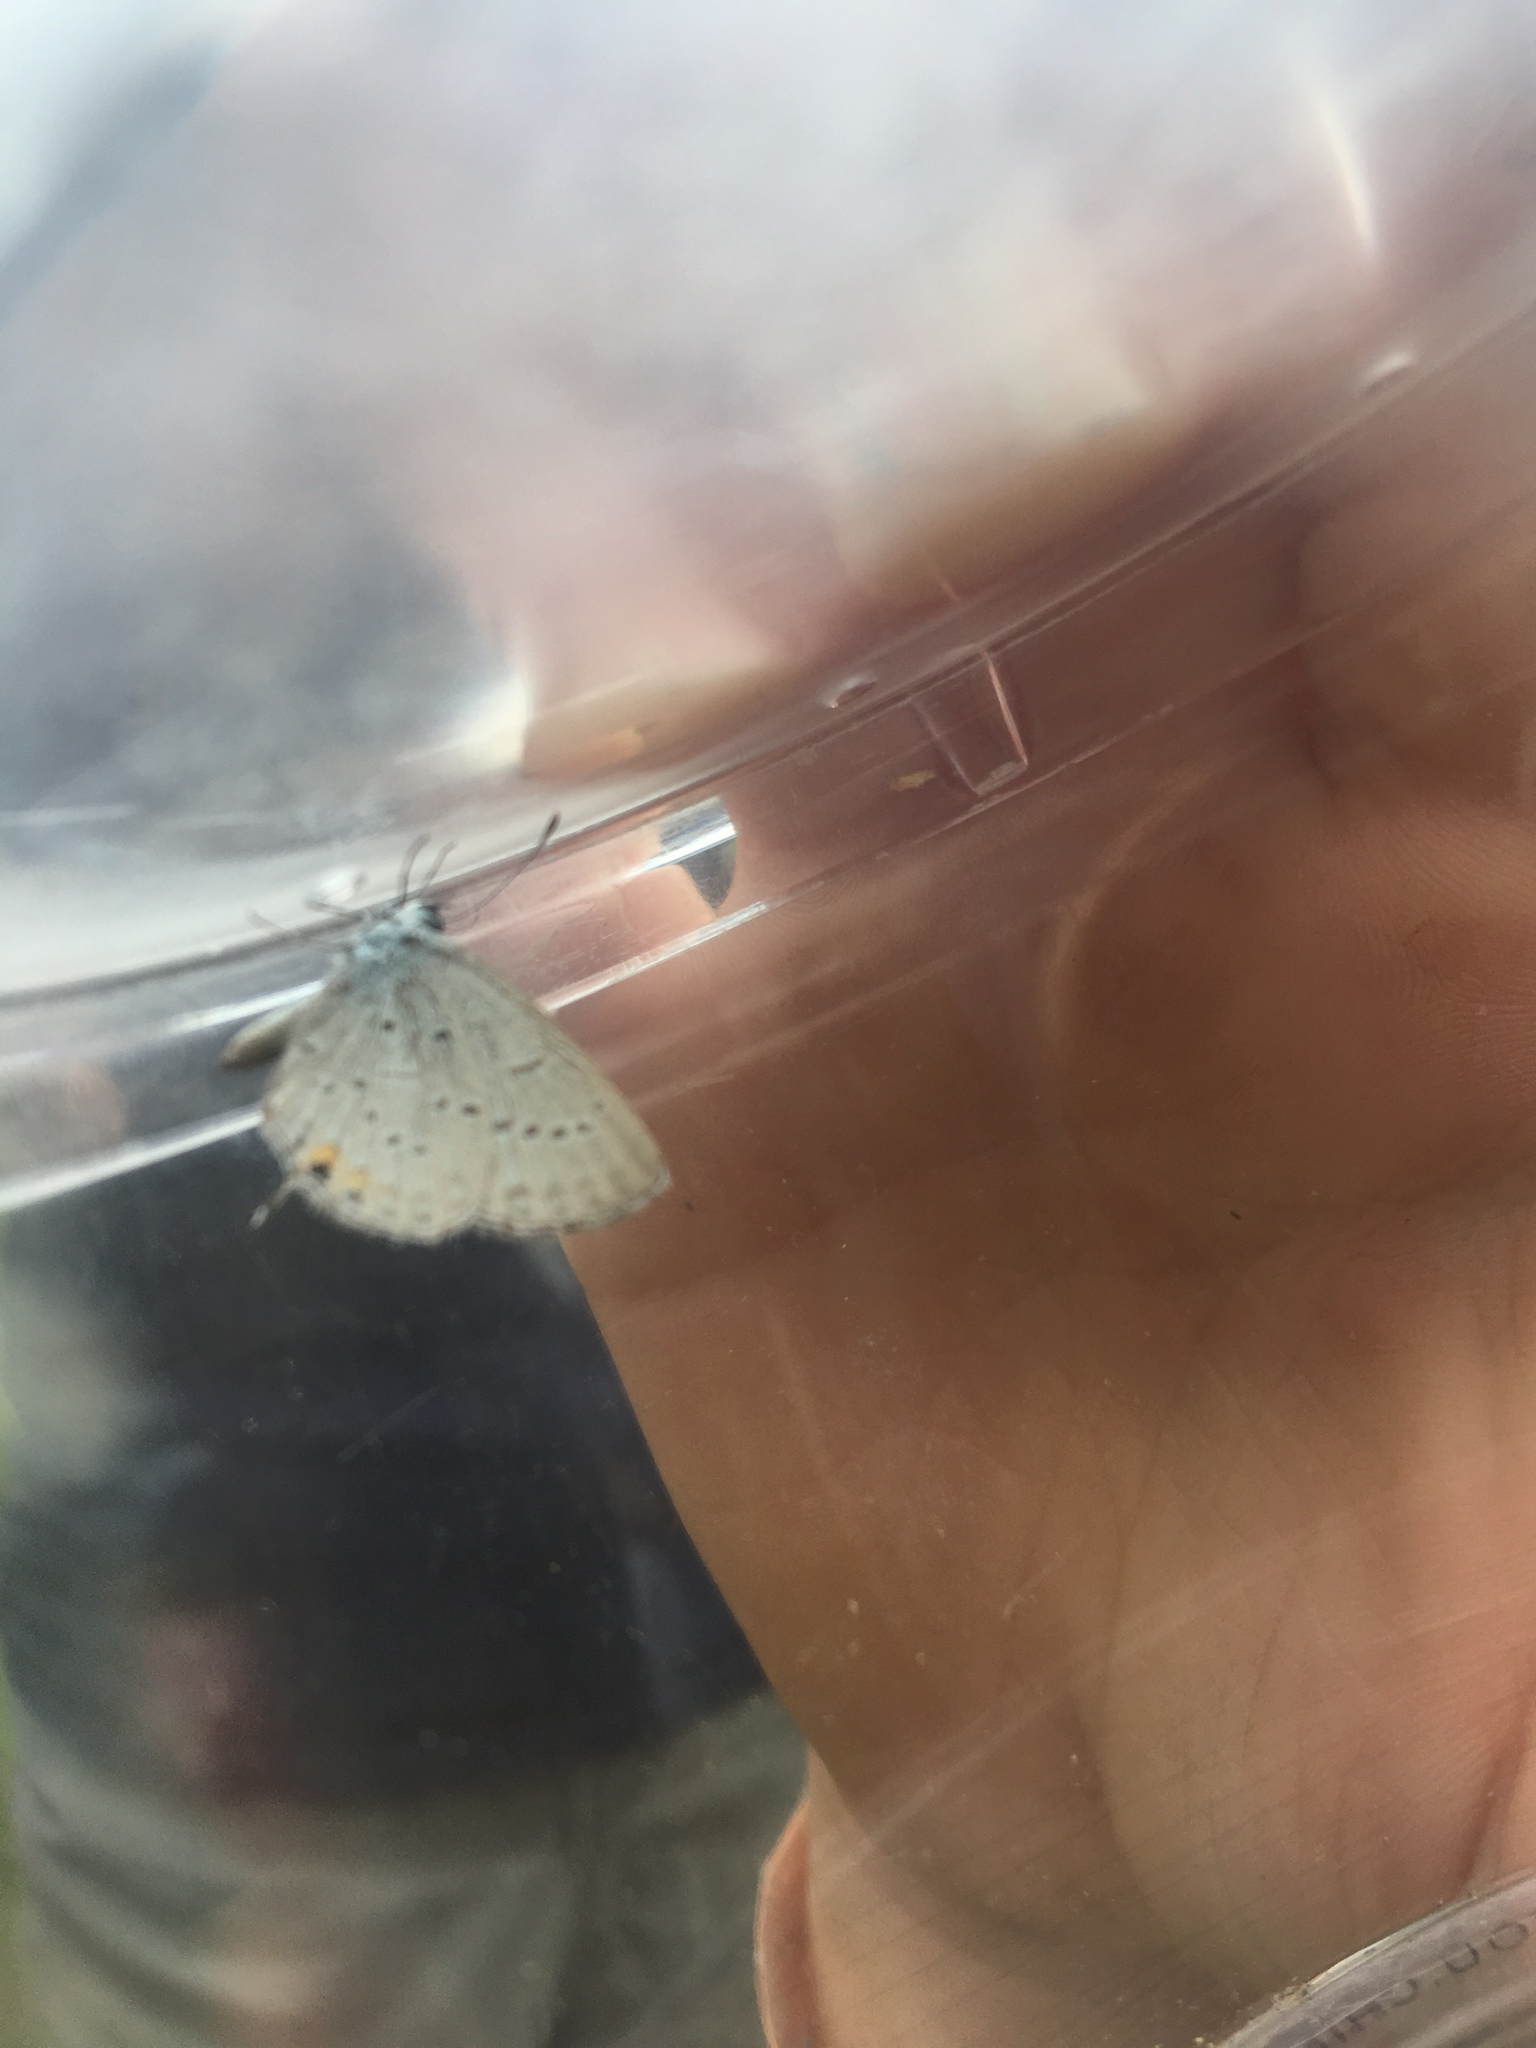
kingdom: Animalia
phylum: Arthropoda
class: Insecta
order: Lepidoptera
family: Lycaenidae
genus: Elkalyce
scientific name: Elkalyce comyntas
